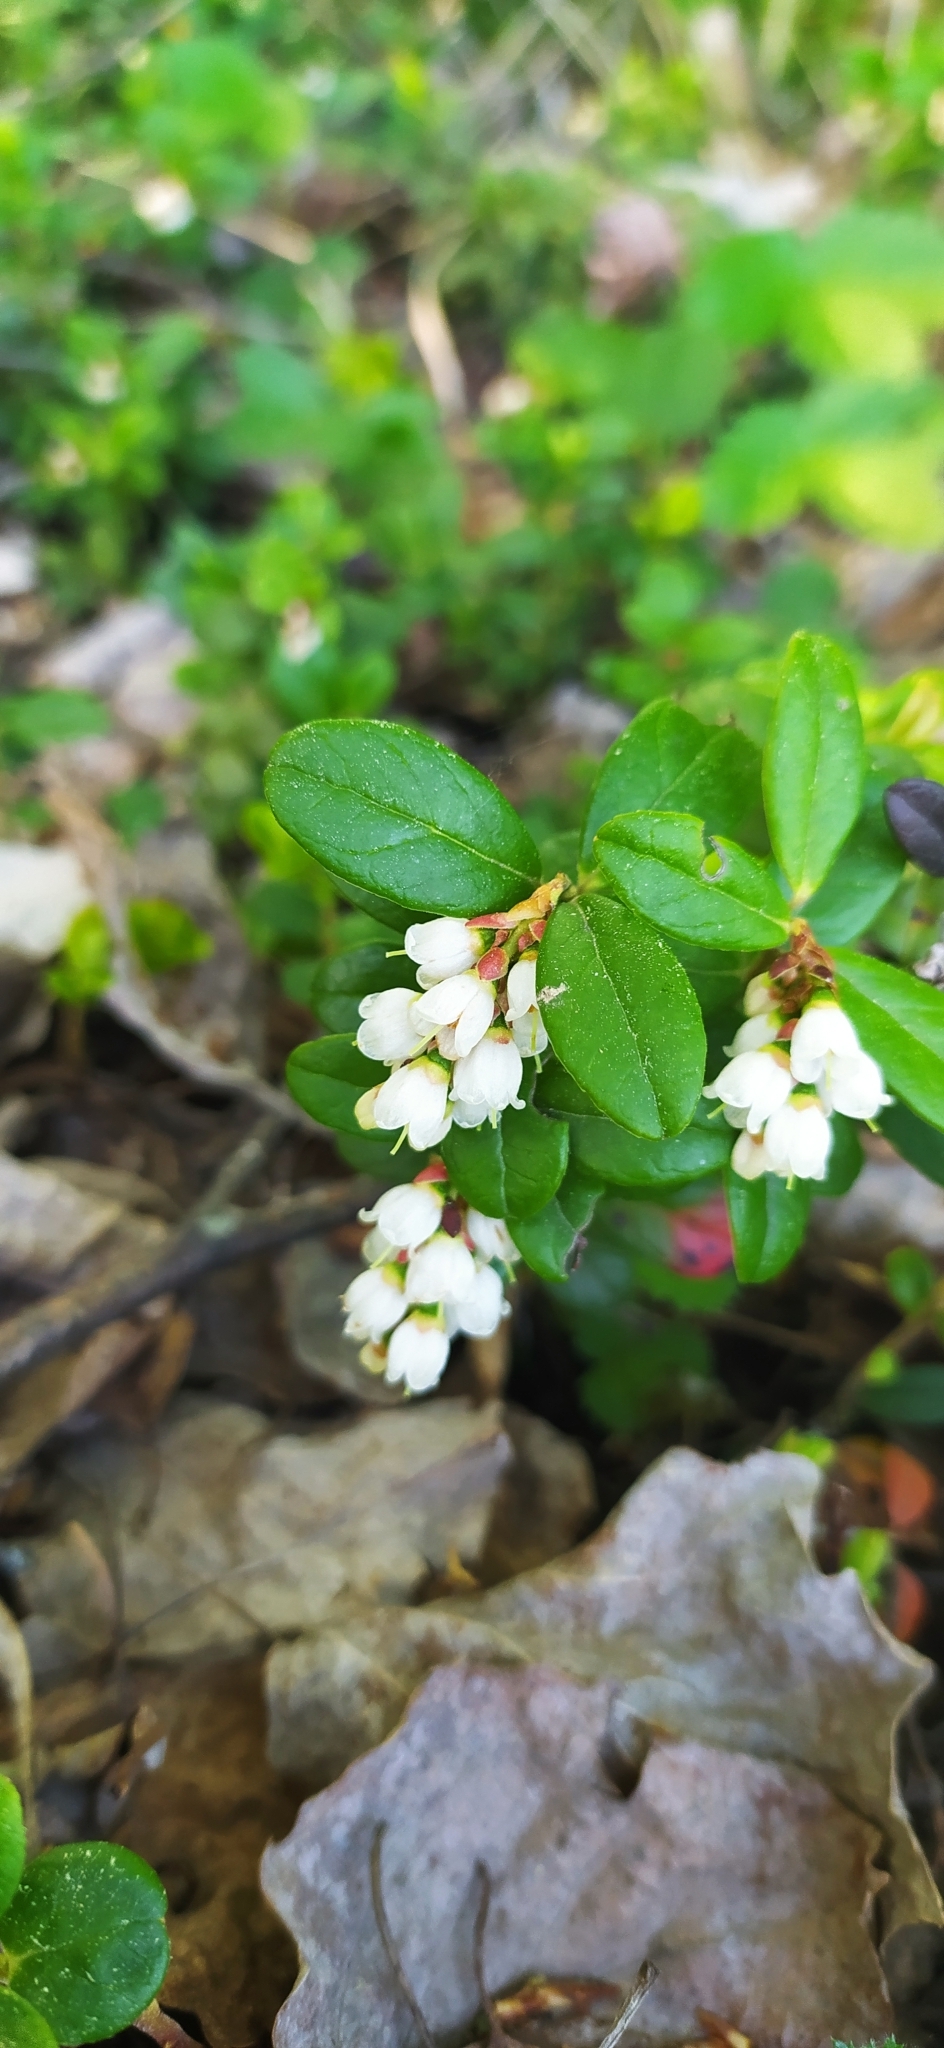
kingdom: Plantae
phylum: Tracheophyta
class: Magnoliopsida
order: Ericales
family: Ericaceae
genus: Vaccinium
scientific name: Vaccinium vitis-idaea
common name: Cowberry
